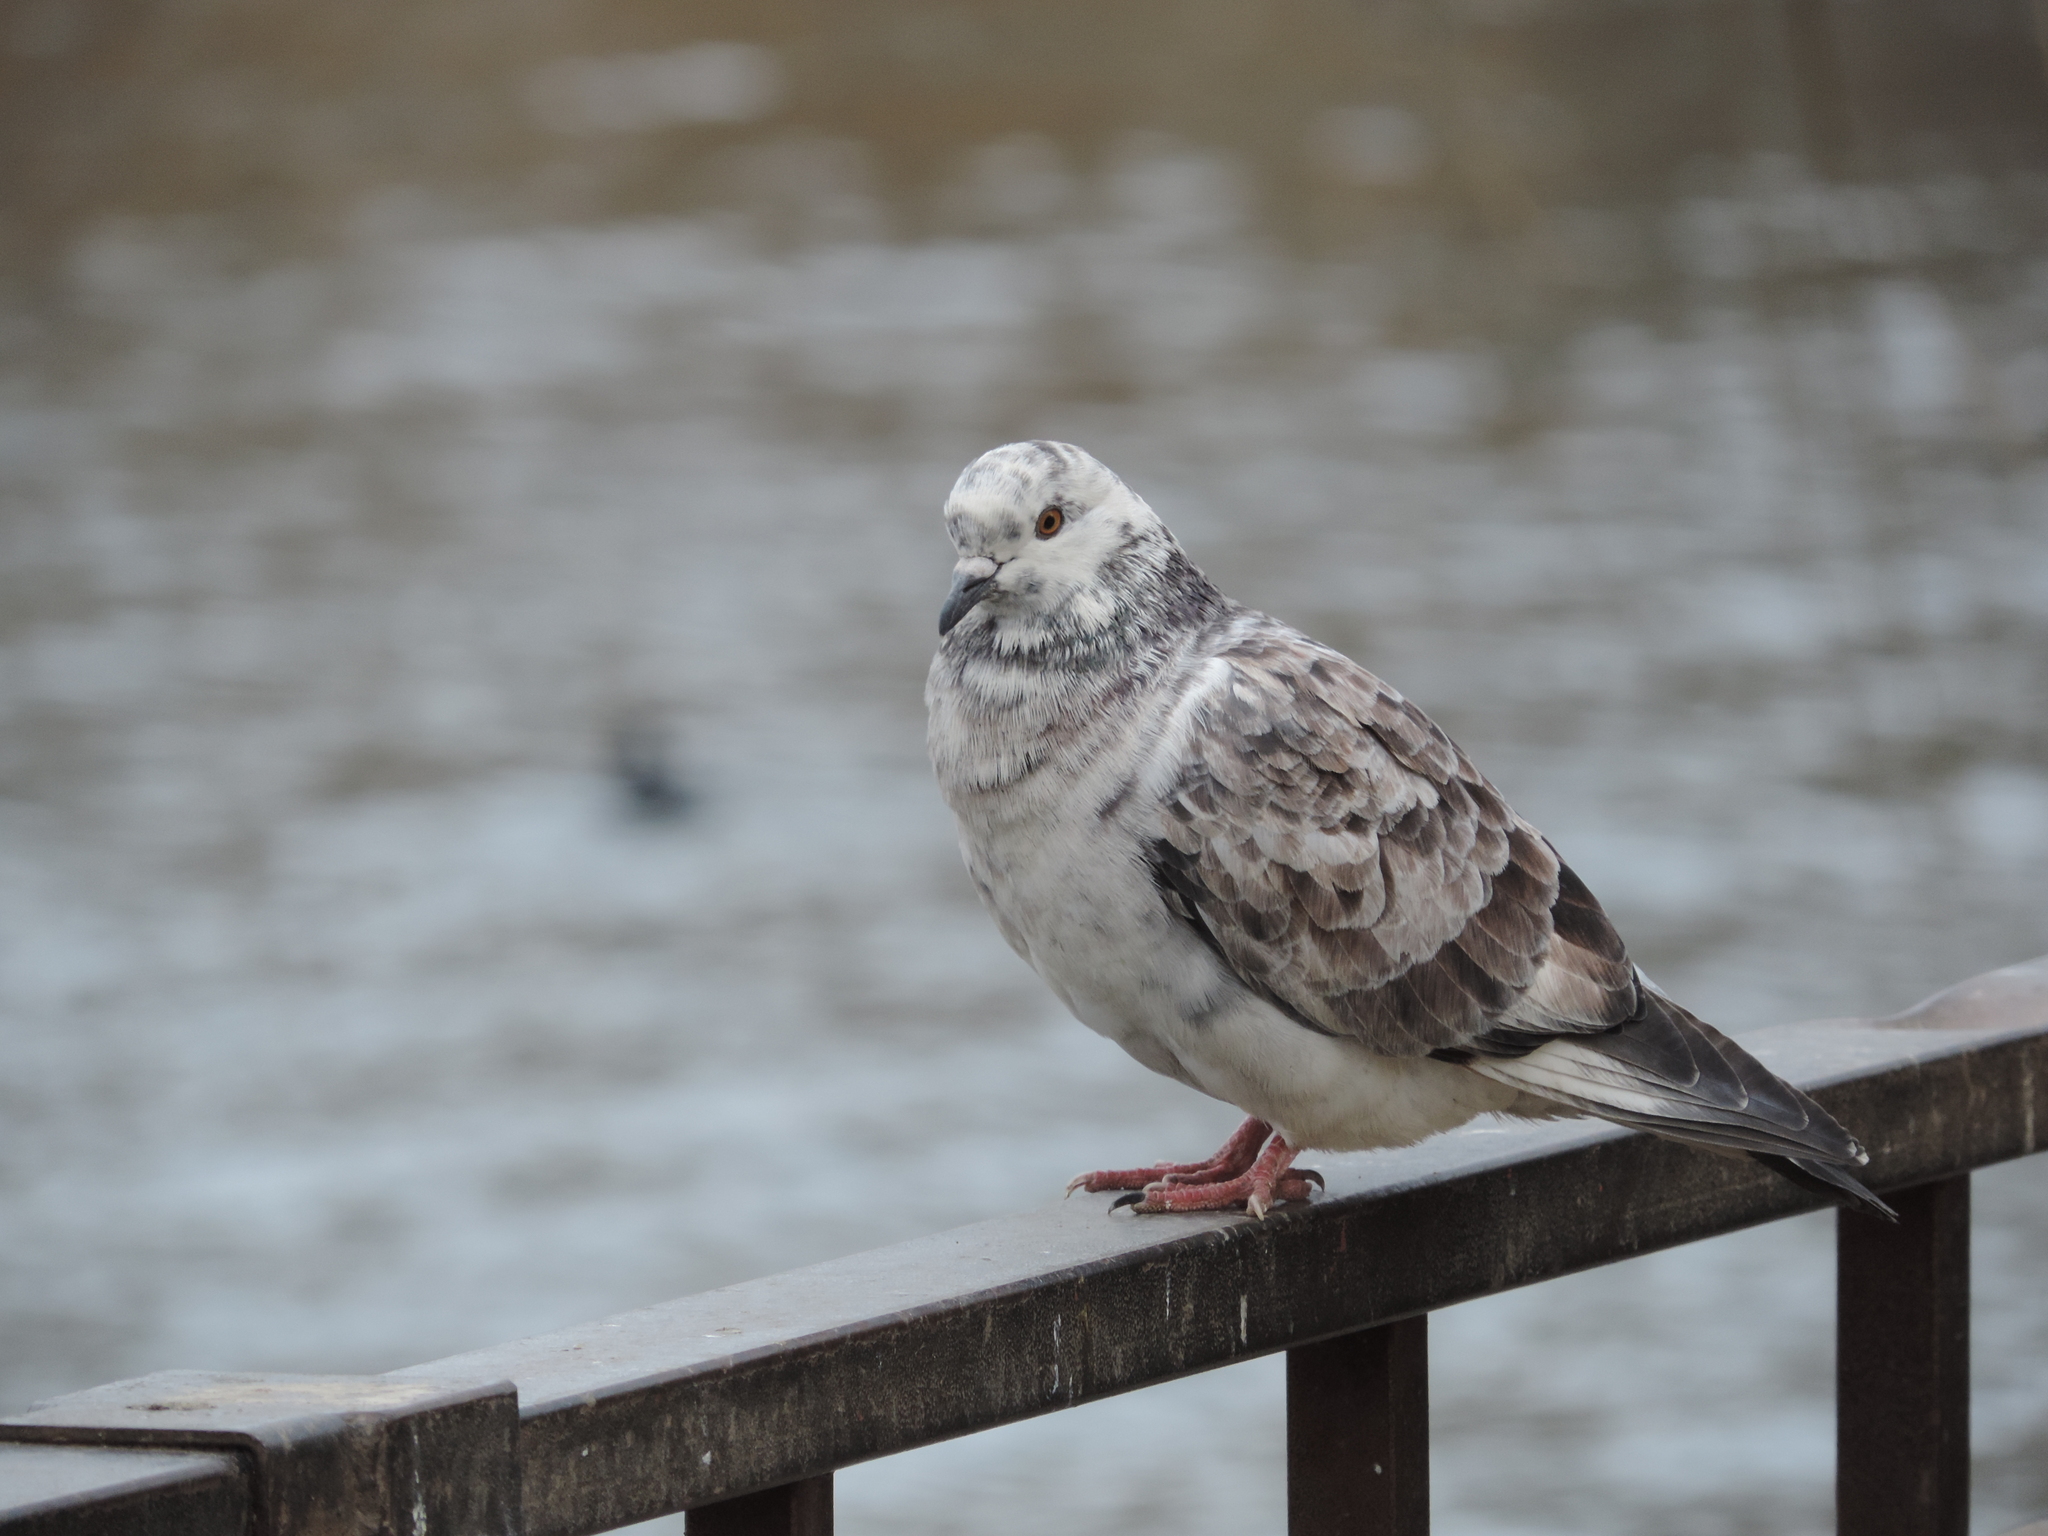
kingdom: Animalia
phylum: Chordata
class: Aves
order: Columbiformes
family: Columbidae
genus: Columba
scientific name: Columba livia
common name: Rock pigeon
